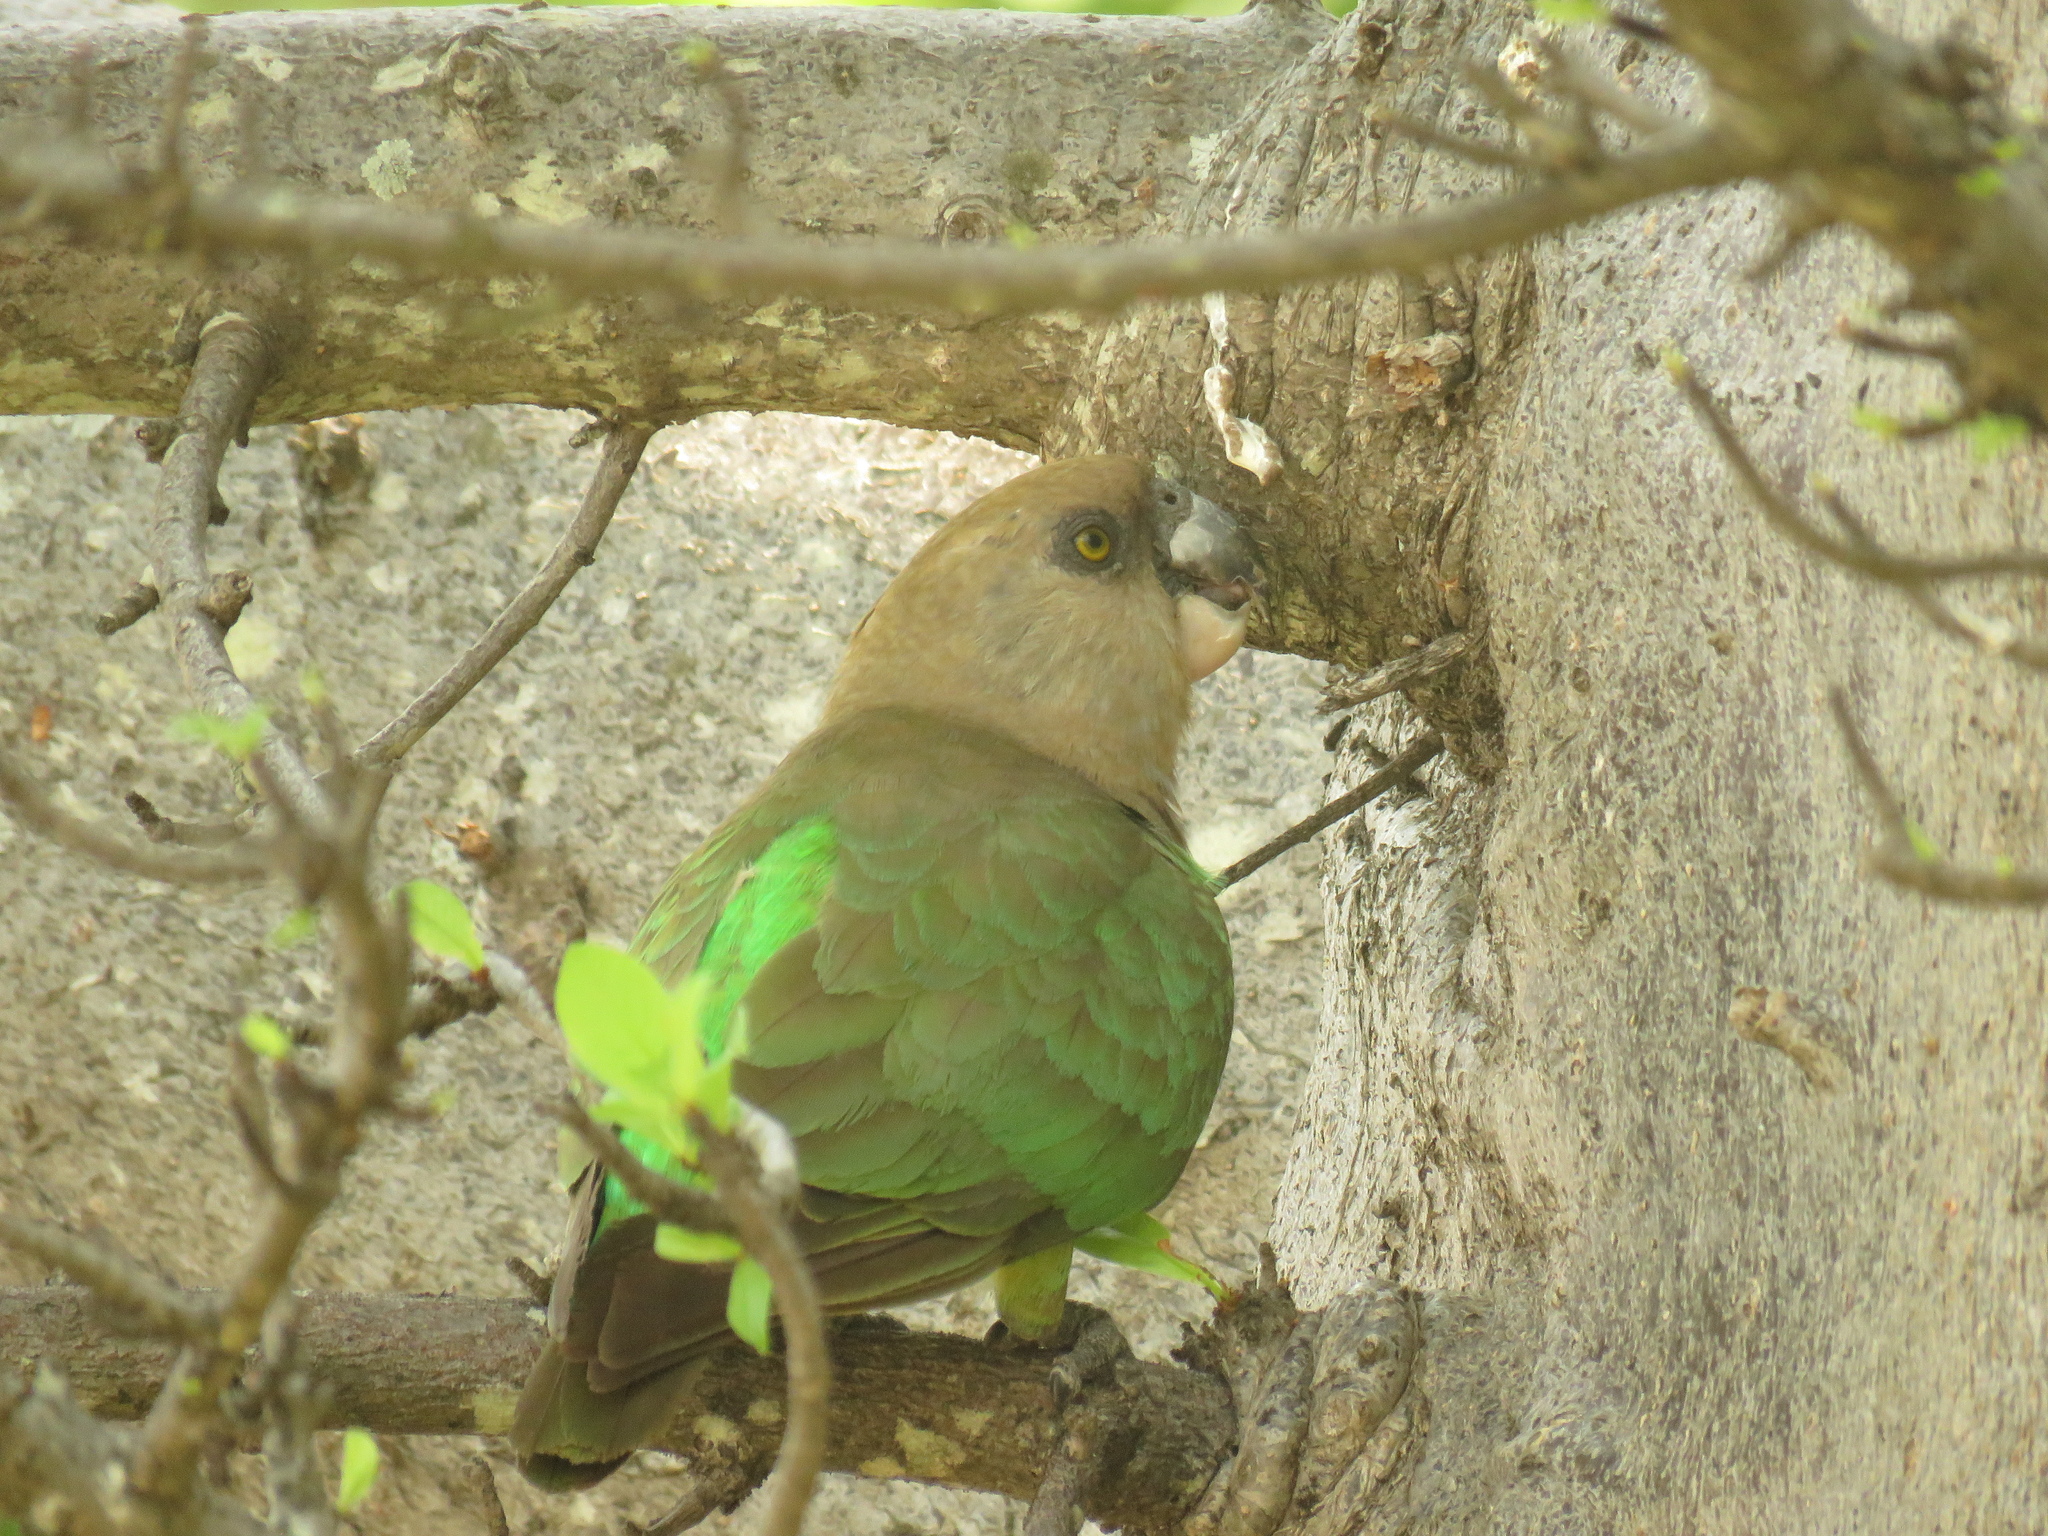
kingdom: Animalia
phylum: Chordata
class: Aves
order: Psittaciformes
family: Psittacidae
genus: Poicephalus
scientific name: Poicephalus cryptoxanthus
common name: Brown-headed parrot
